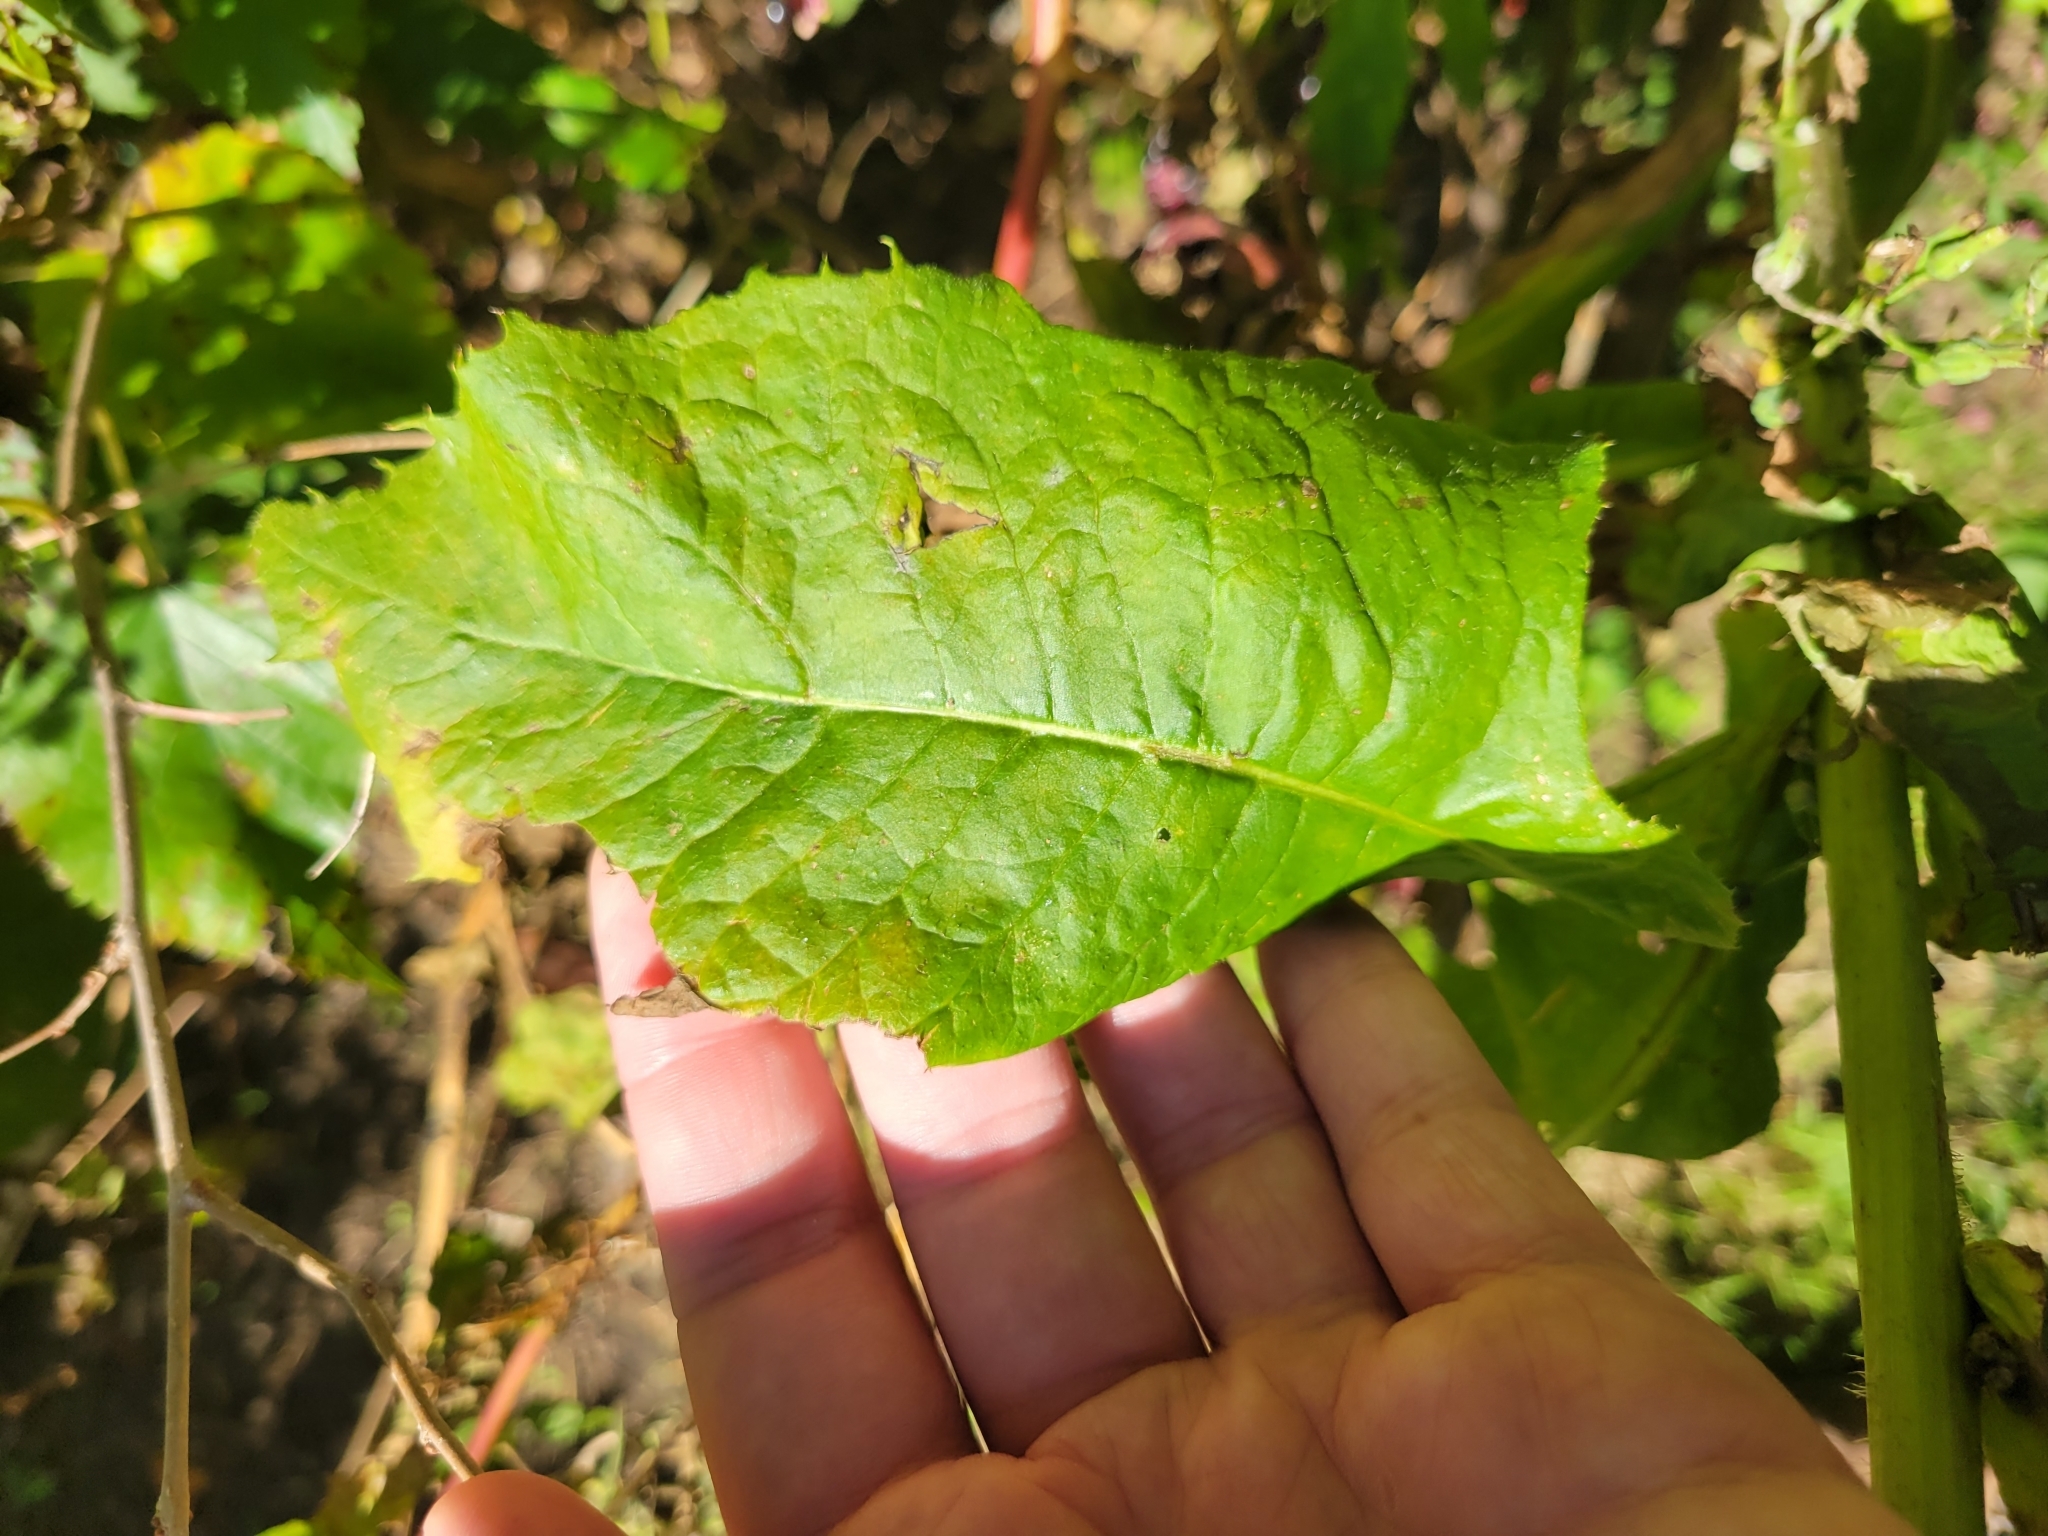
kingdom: Plantae
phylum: Tracheophyta
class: Magnoliopsida
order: Asterales
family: Asteraceae
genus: Lactuca
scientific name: Lactuca biennis
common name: Blue wood lettuce
